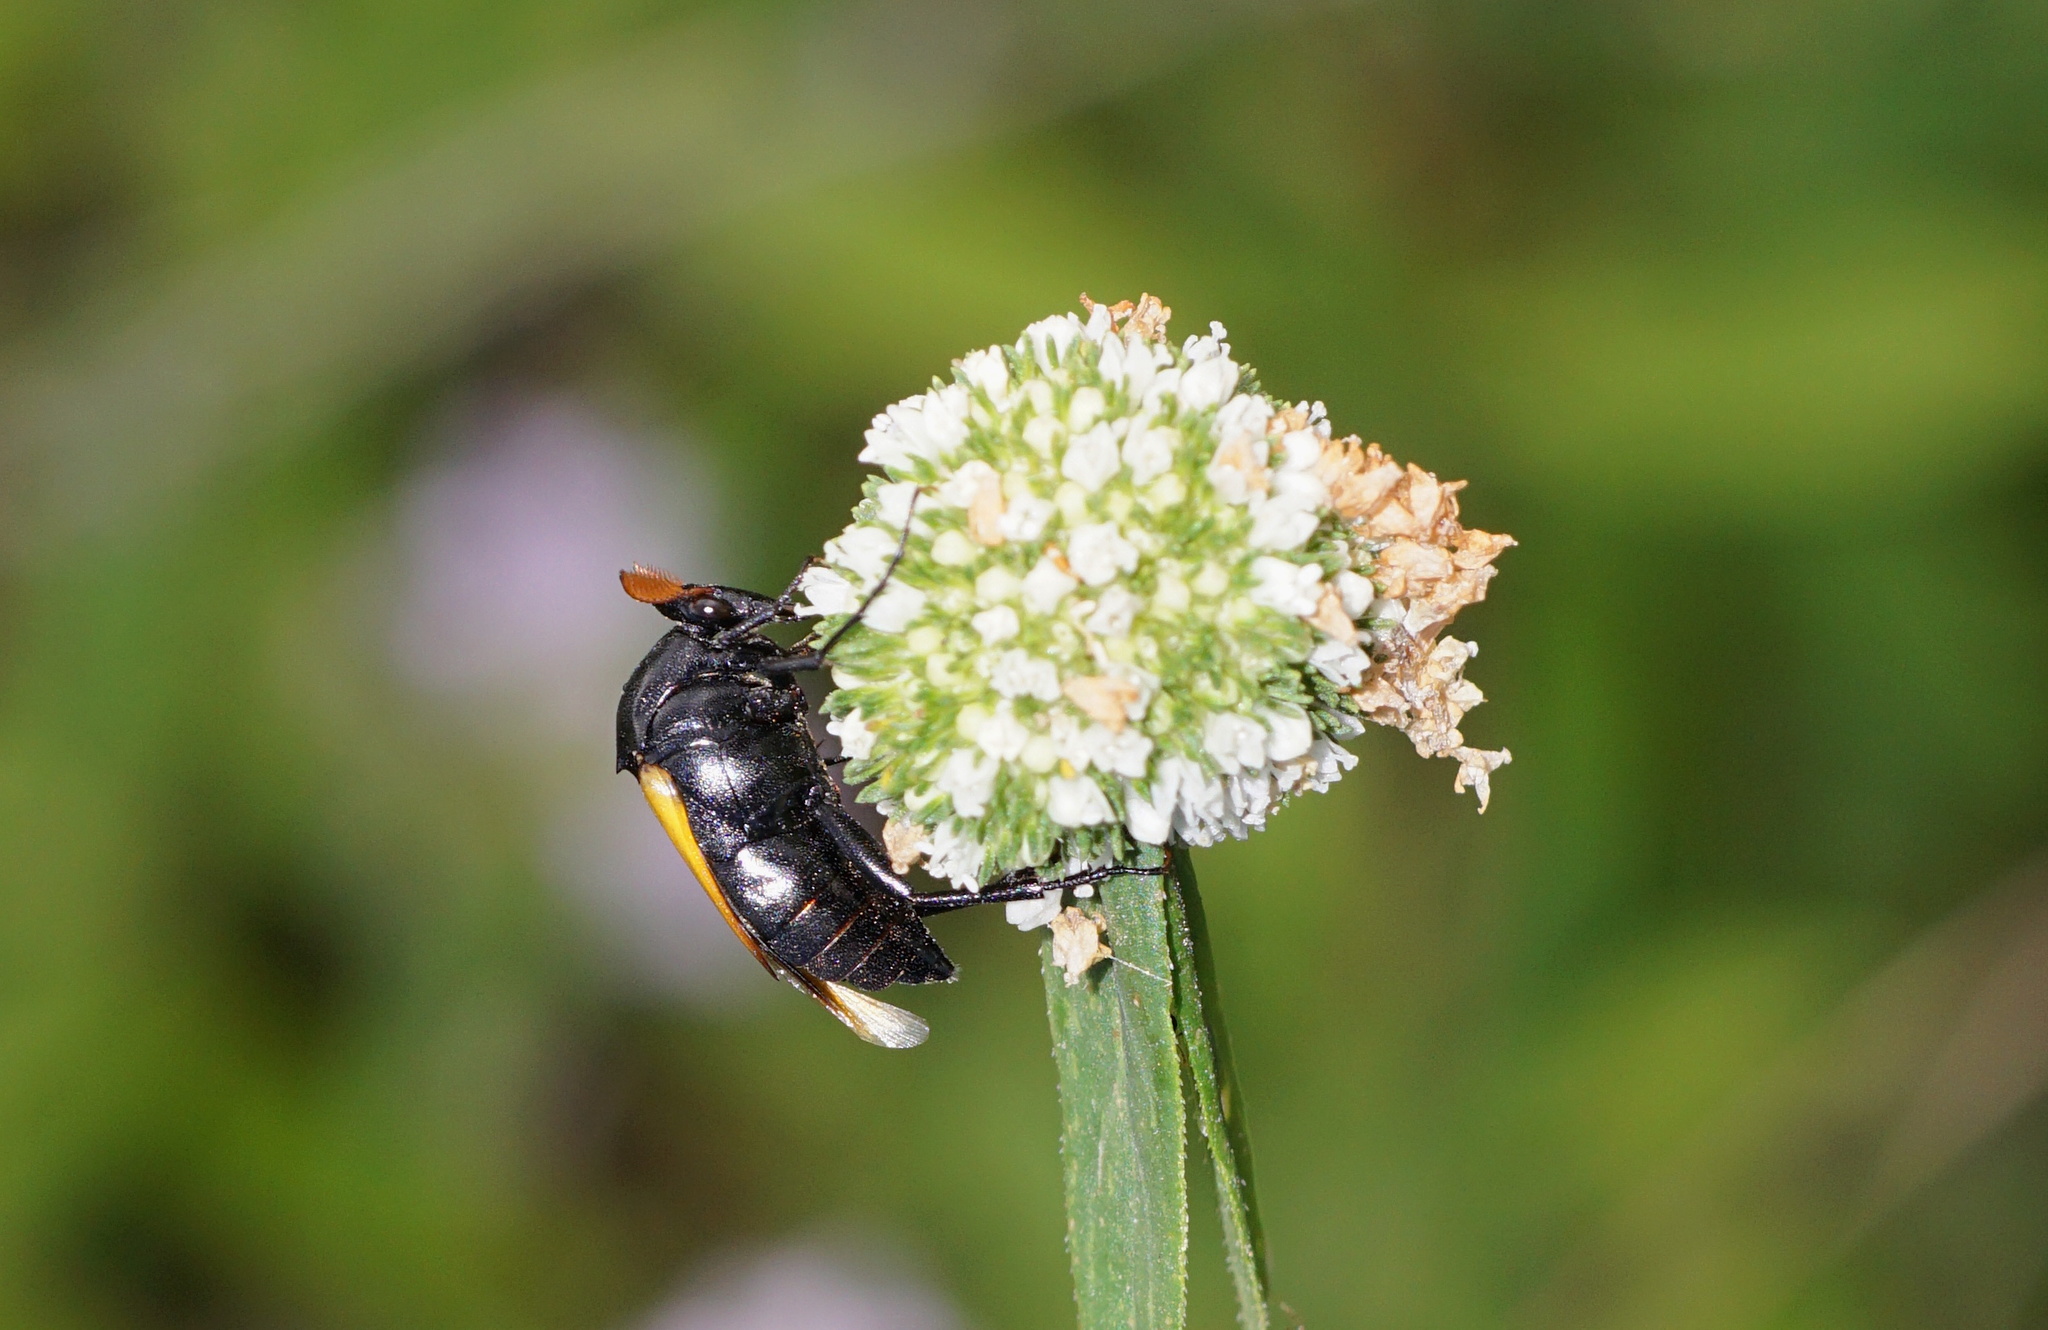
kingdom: Animalia
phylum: Arthropoda
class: Insecta
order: Coleoptera
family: Ripiphoridae
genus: Macrosiagon
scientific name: Macrosiagon flavipennis
